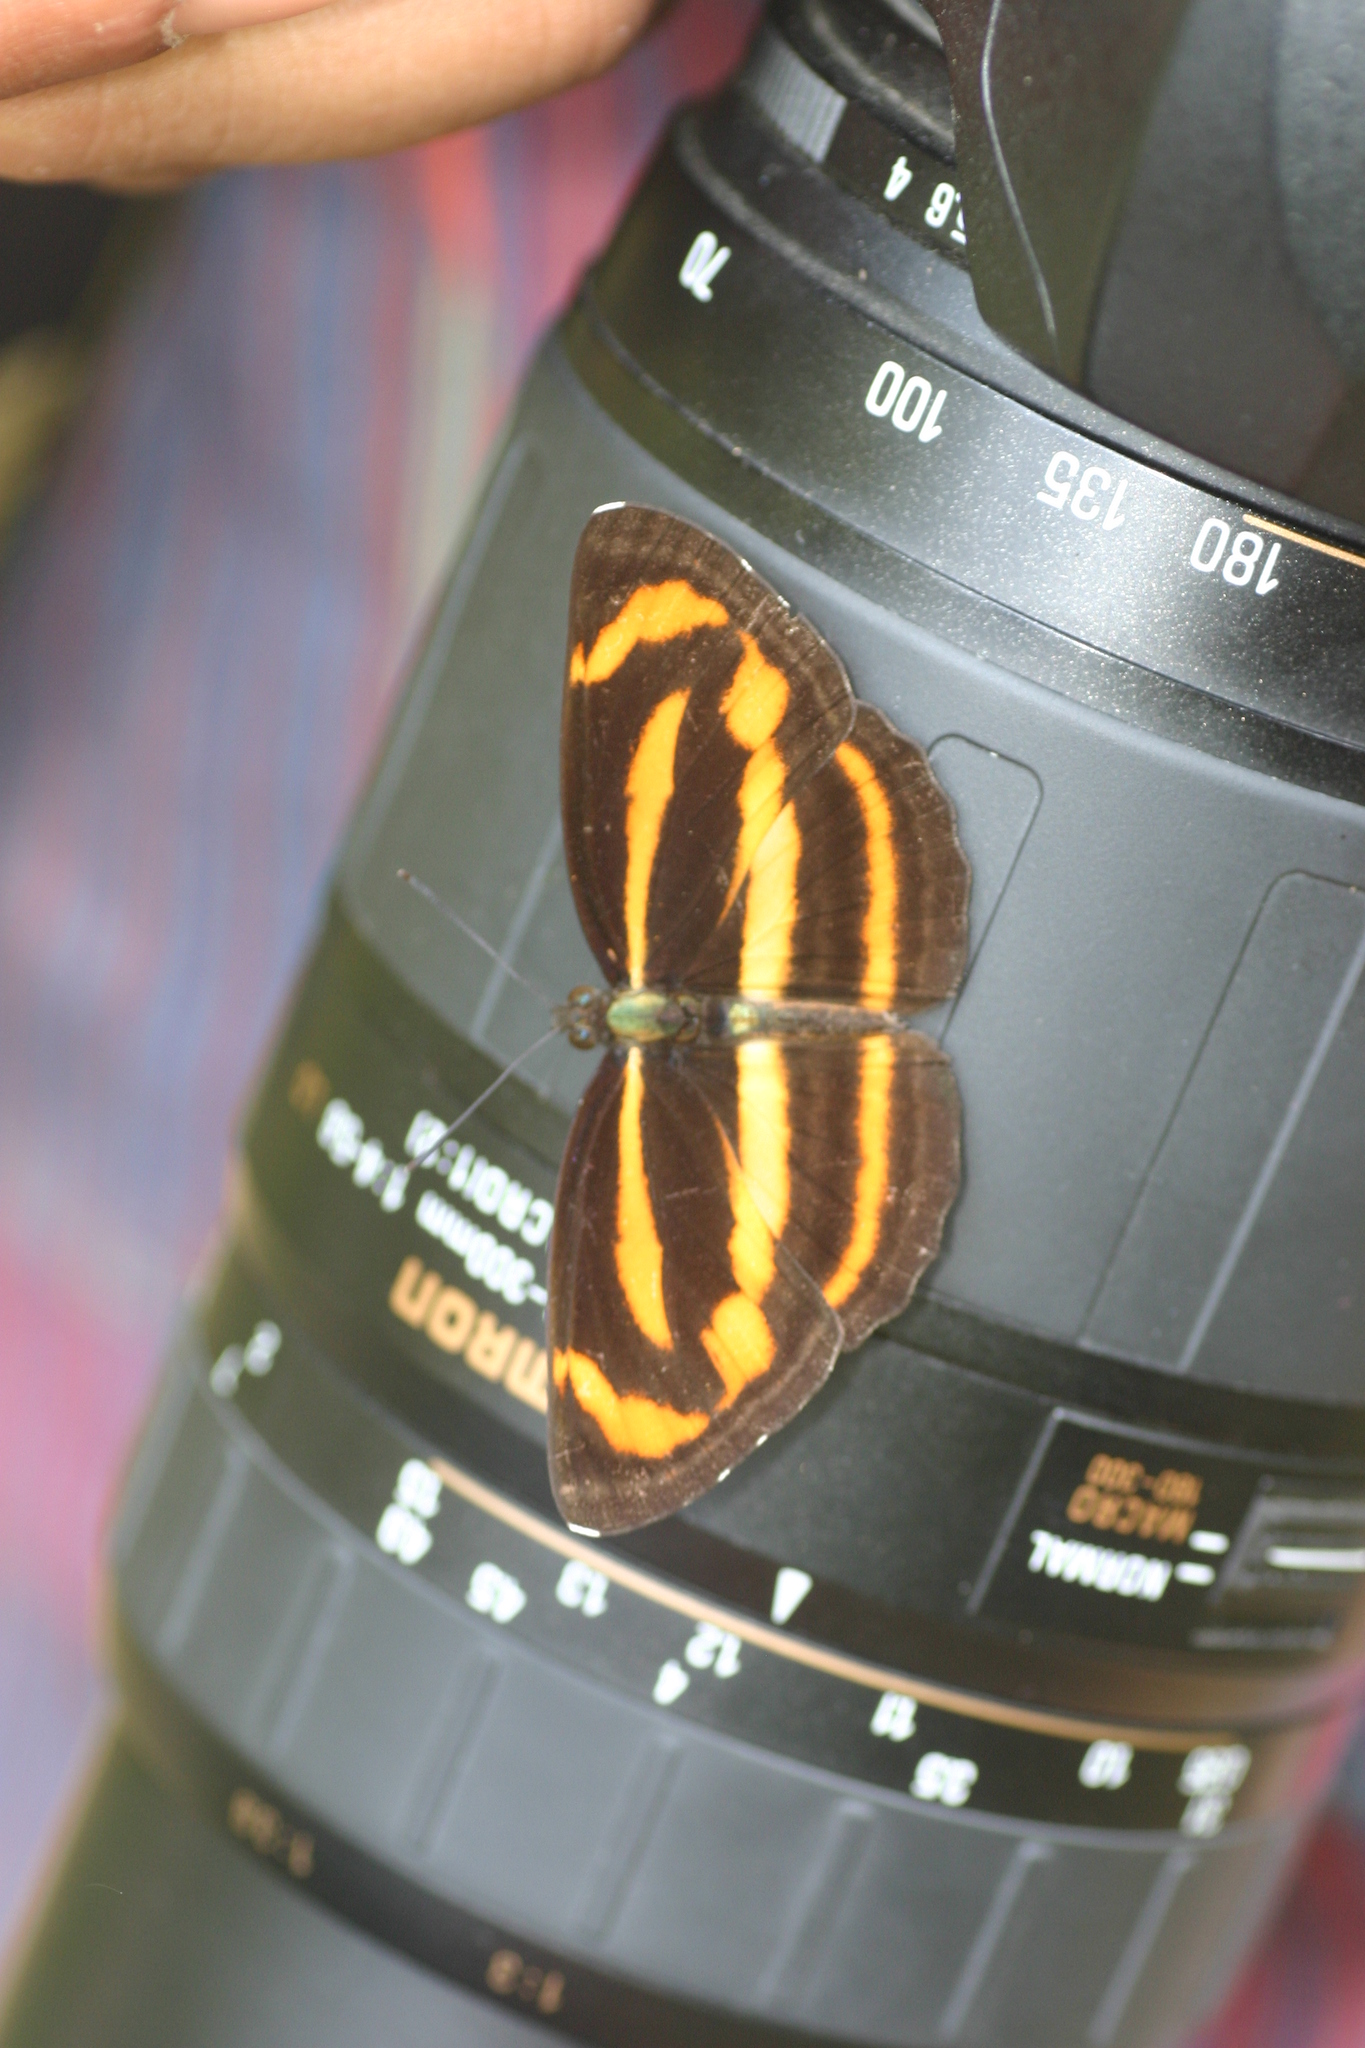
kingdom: Animalia
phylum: Arthropoda
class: Insecta
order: Lepidoptera
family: Nymphalidae
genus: Neptis
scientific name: Neptis miah
